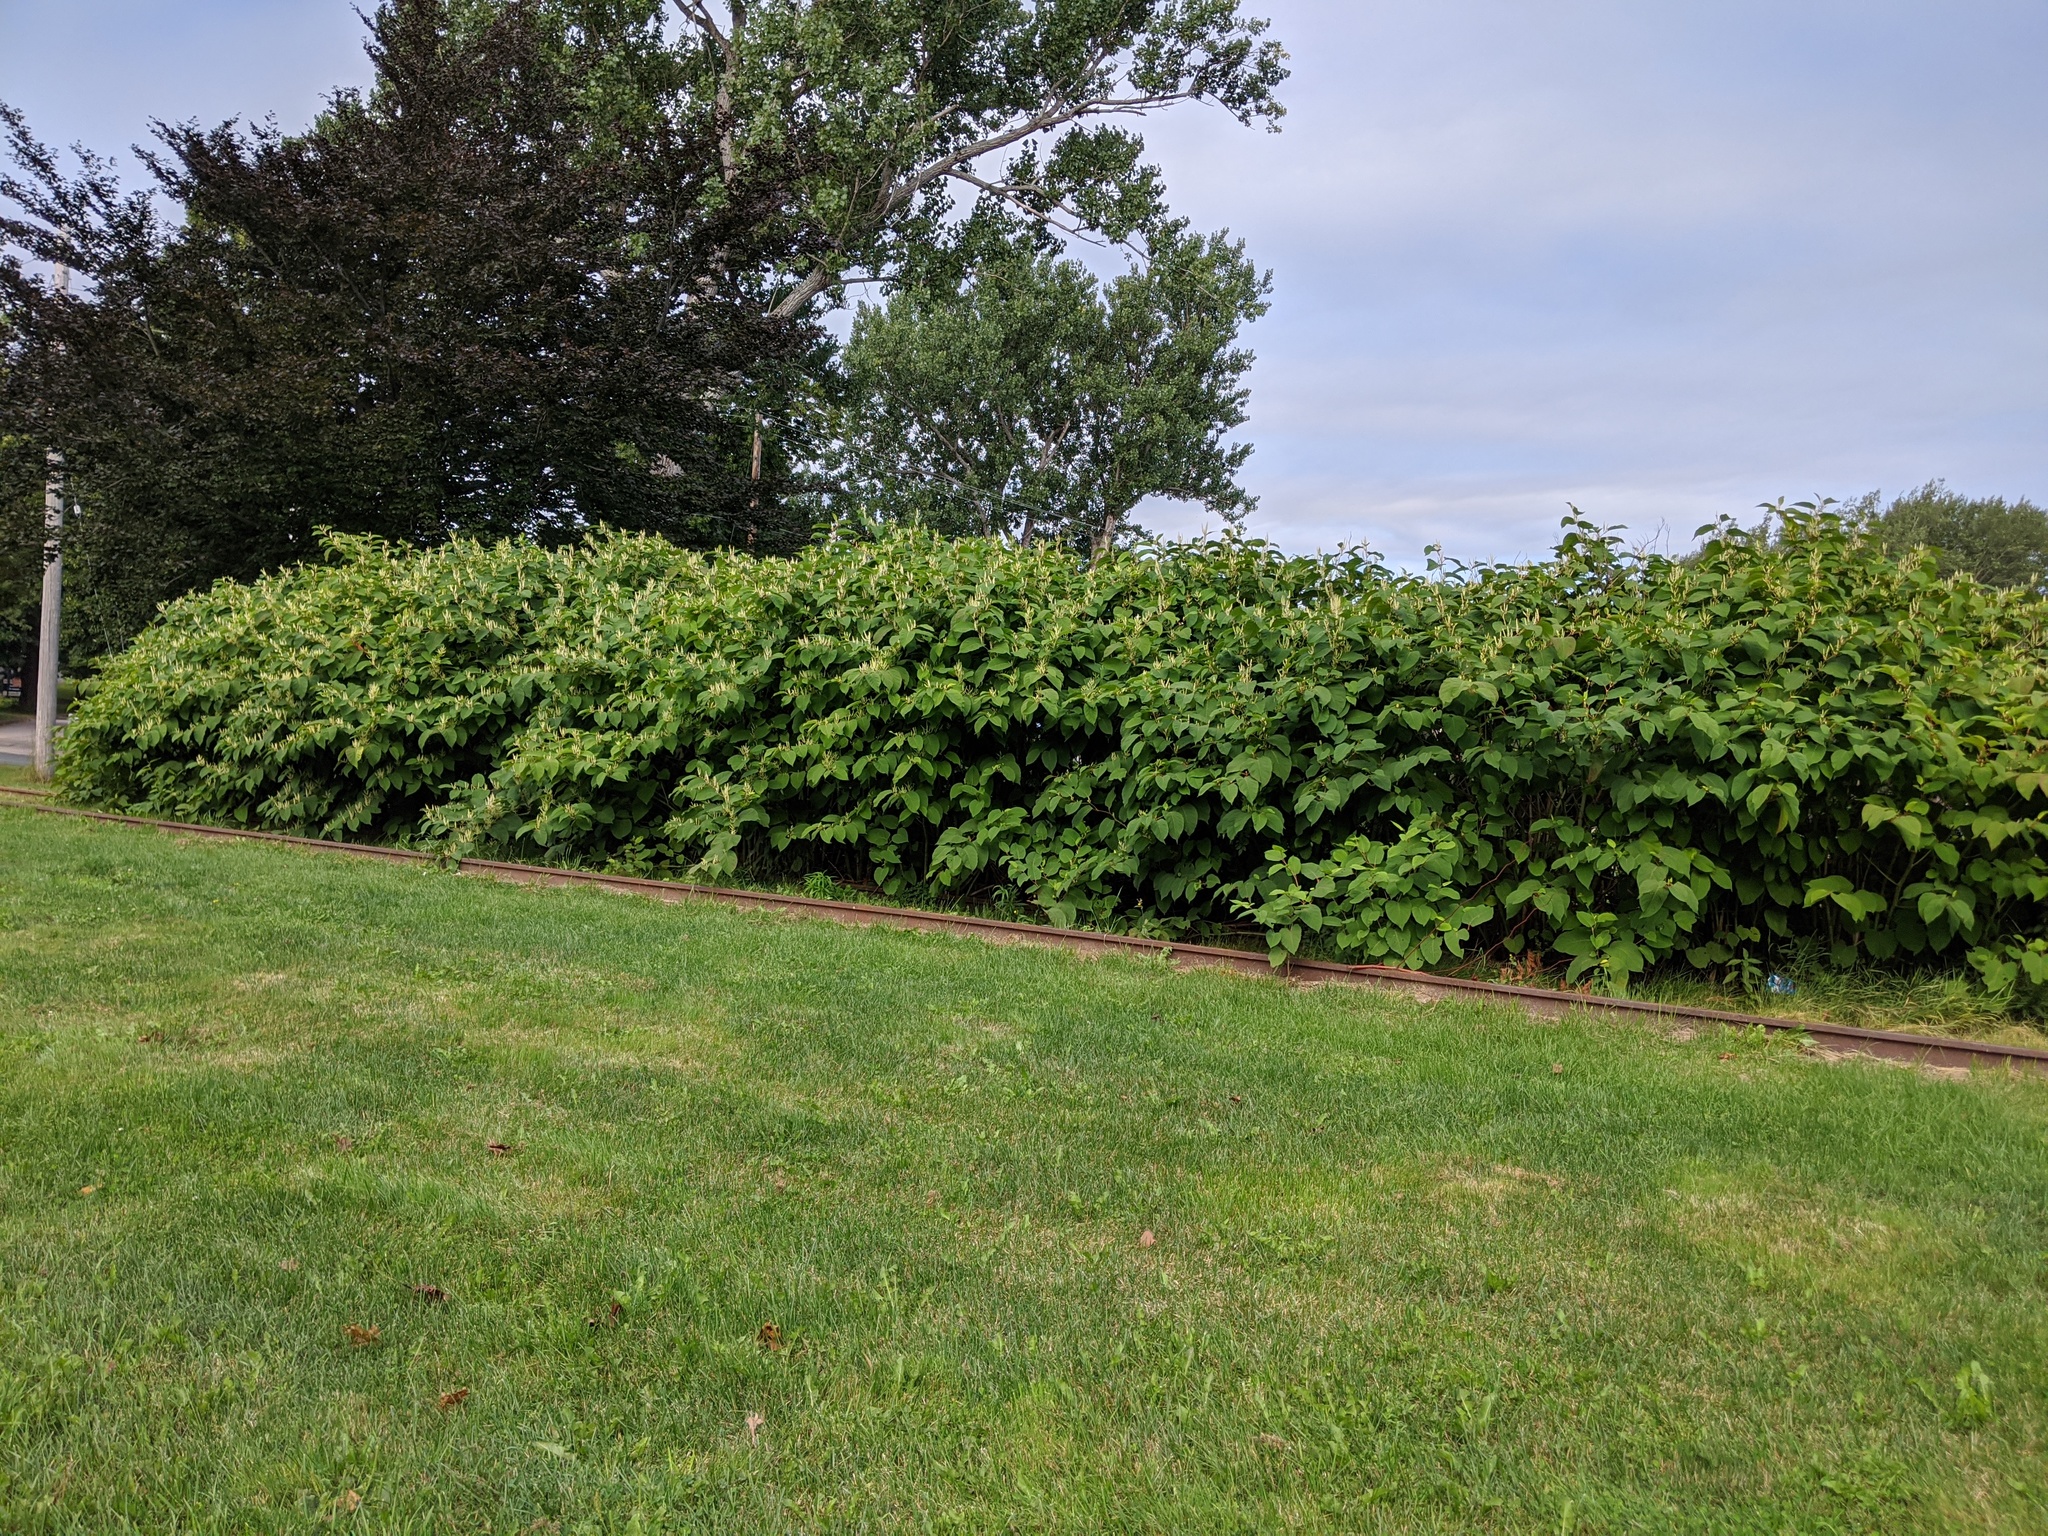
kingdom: Plantae
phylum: Tracheophyta
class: Magnoliopsida
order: Caryophyllales
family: Polygonaceae
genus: Reynoutria
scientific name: Reynoutria japonica
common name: Japanese knotweed
